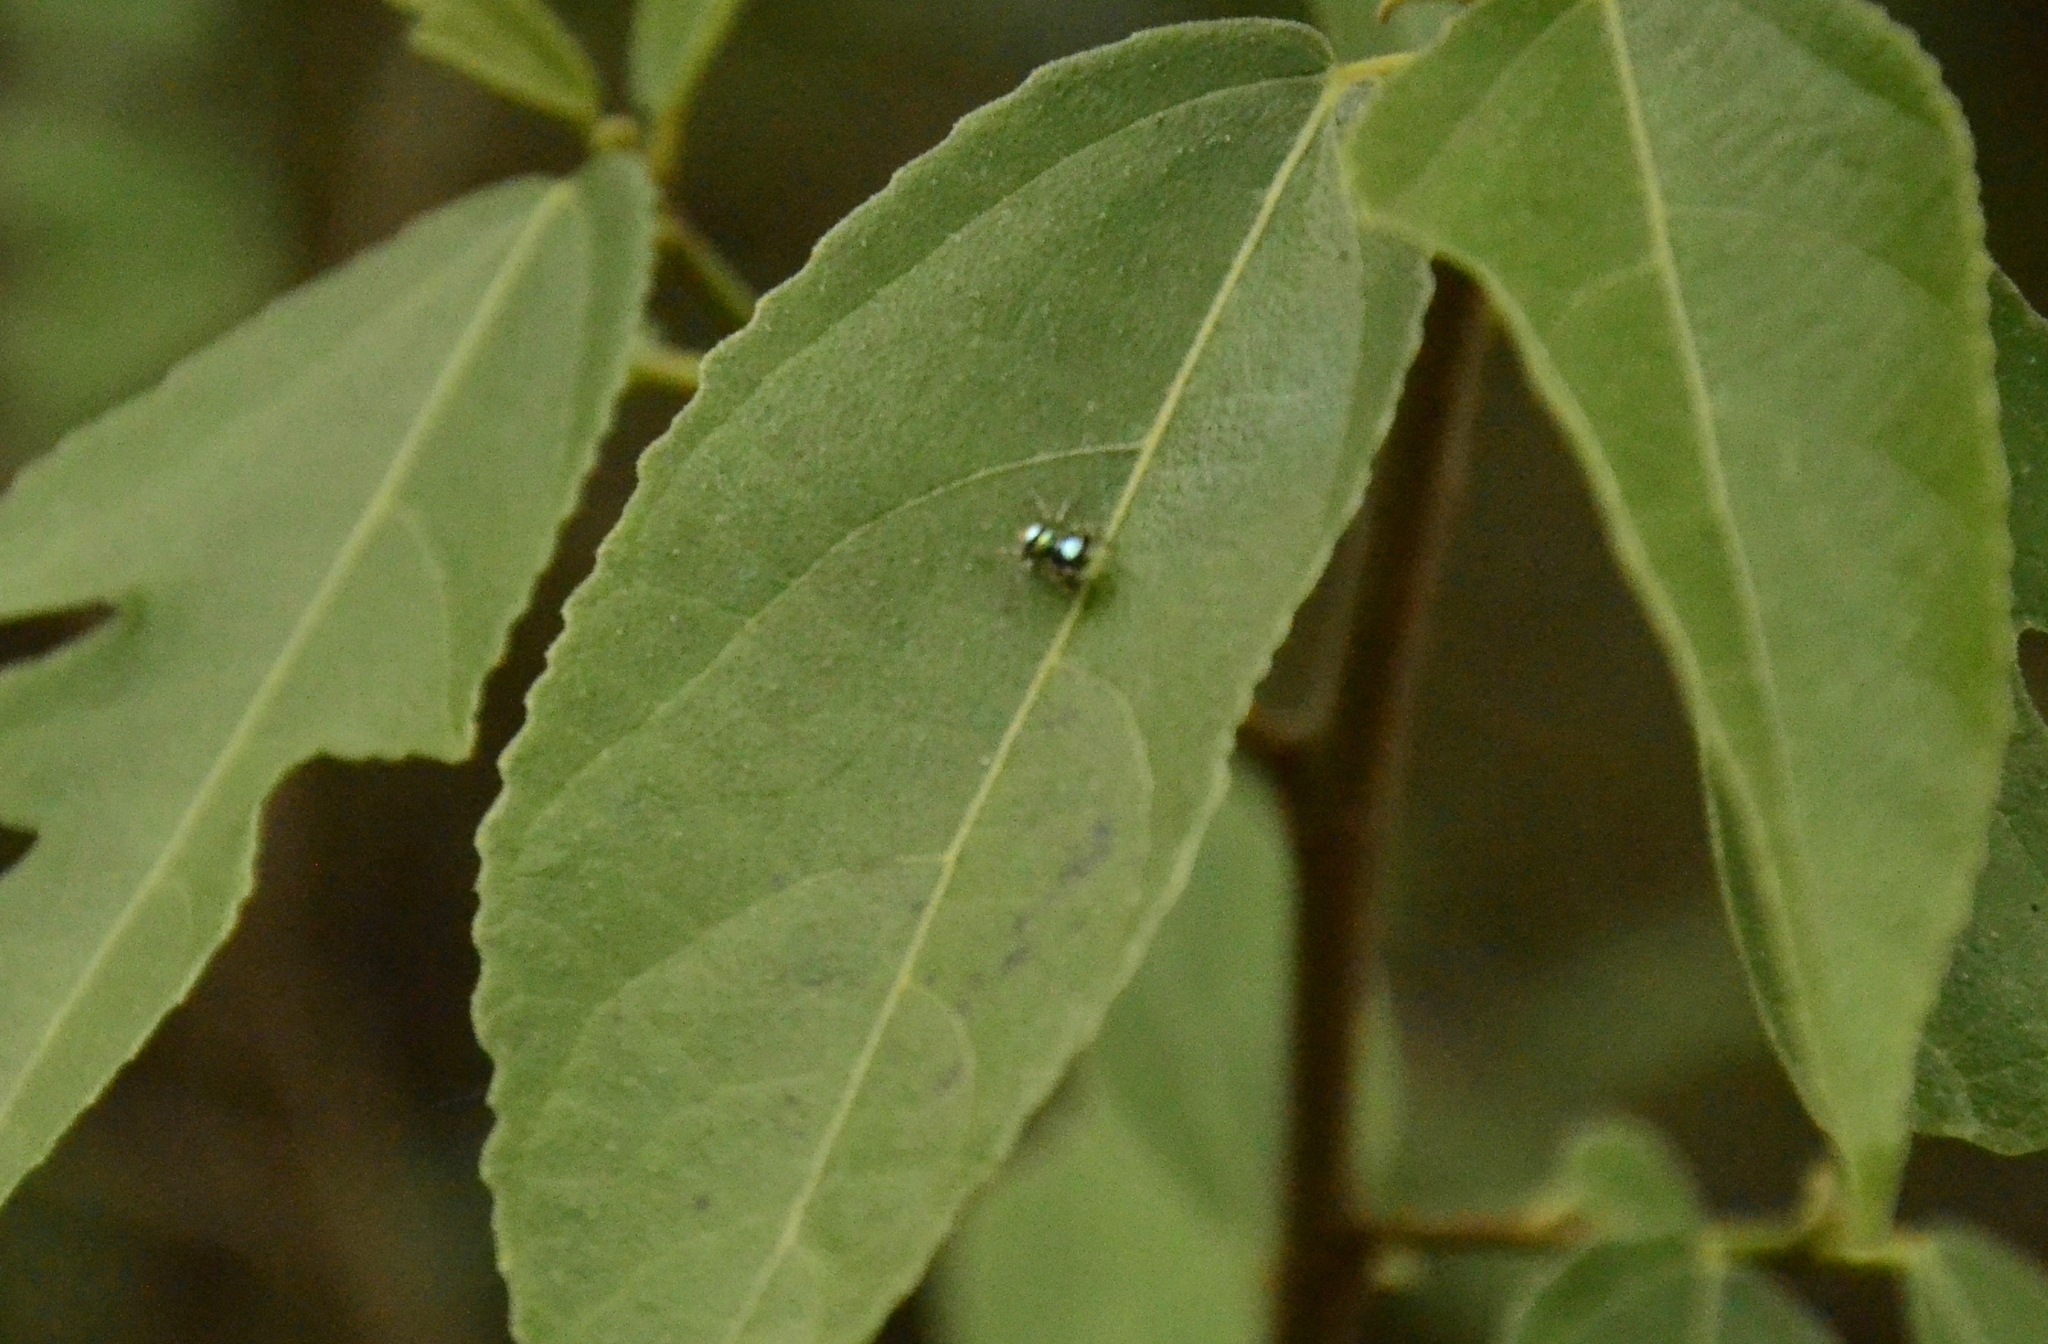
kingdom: Animalia
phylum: Arthropoda
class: Arachnida
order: Araneae
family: Salticidae
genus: Phintella
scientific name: Phintella vittata
